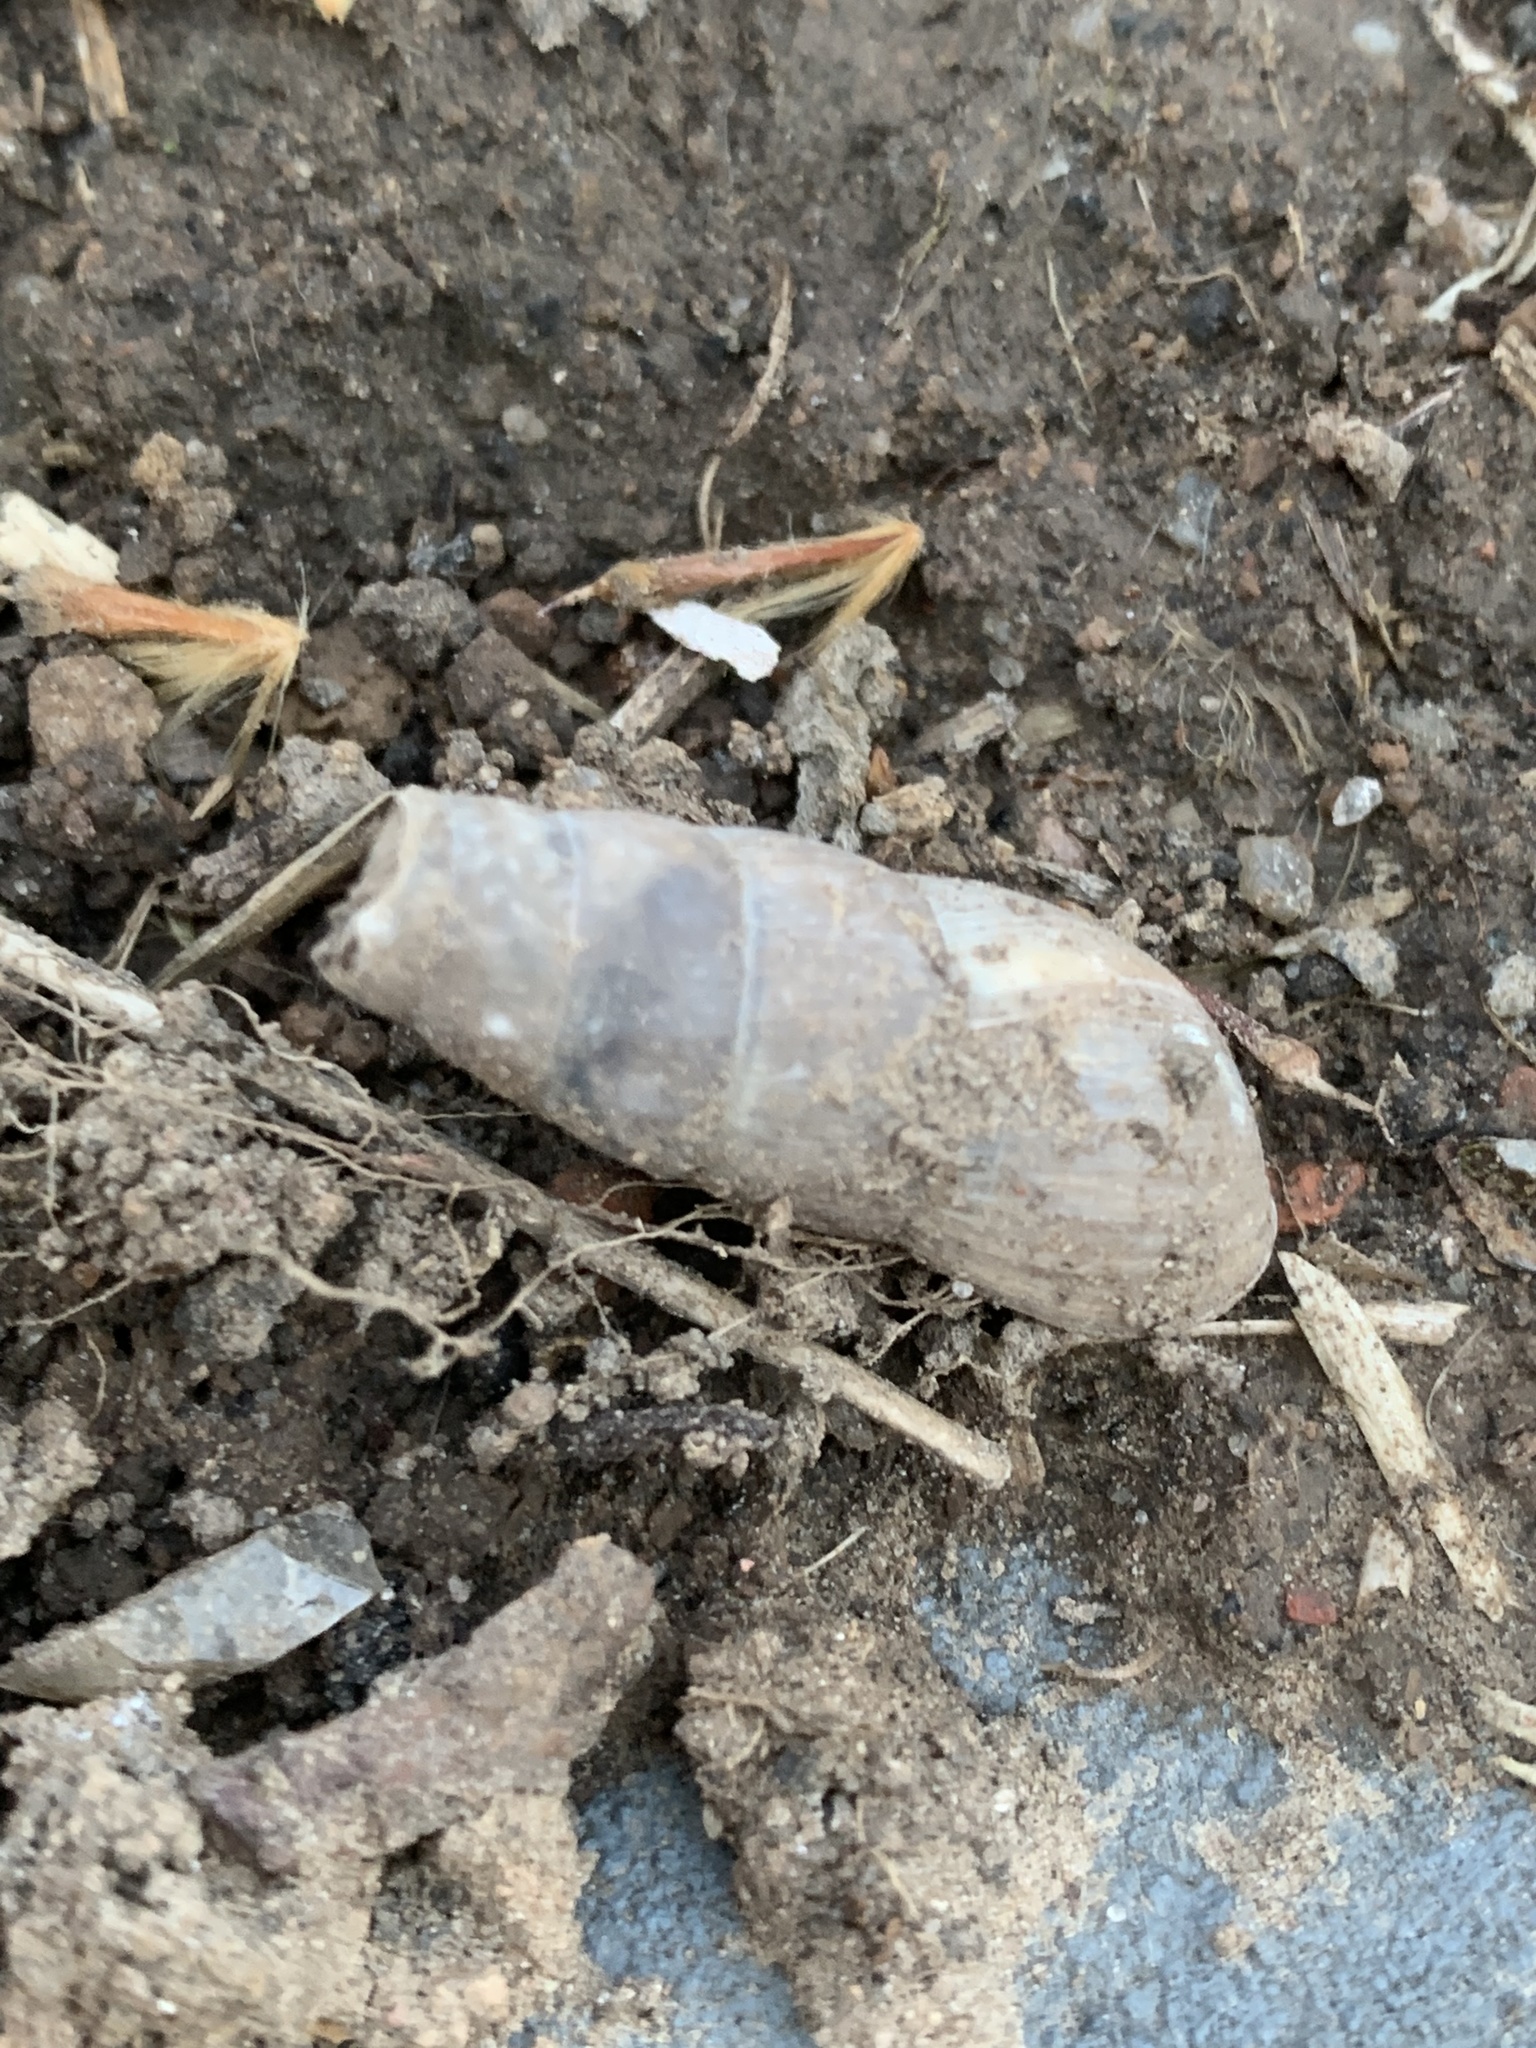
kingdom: Animalia
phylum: Mollusca
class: Gastropoda
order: Stylommatophora
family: Achatinidae
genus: Rumina
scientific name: Rumina decollata
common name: Decollate snail
